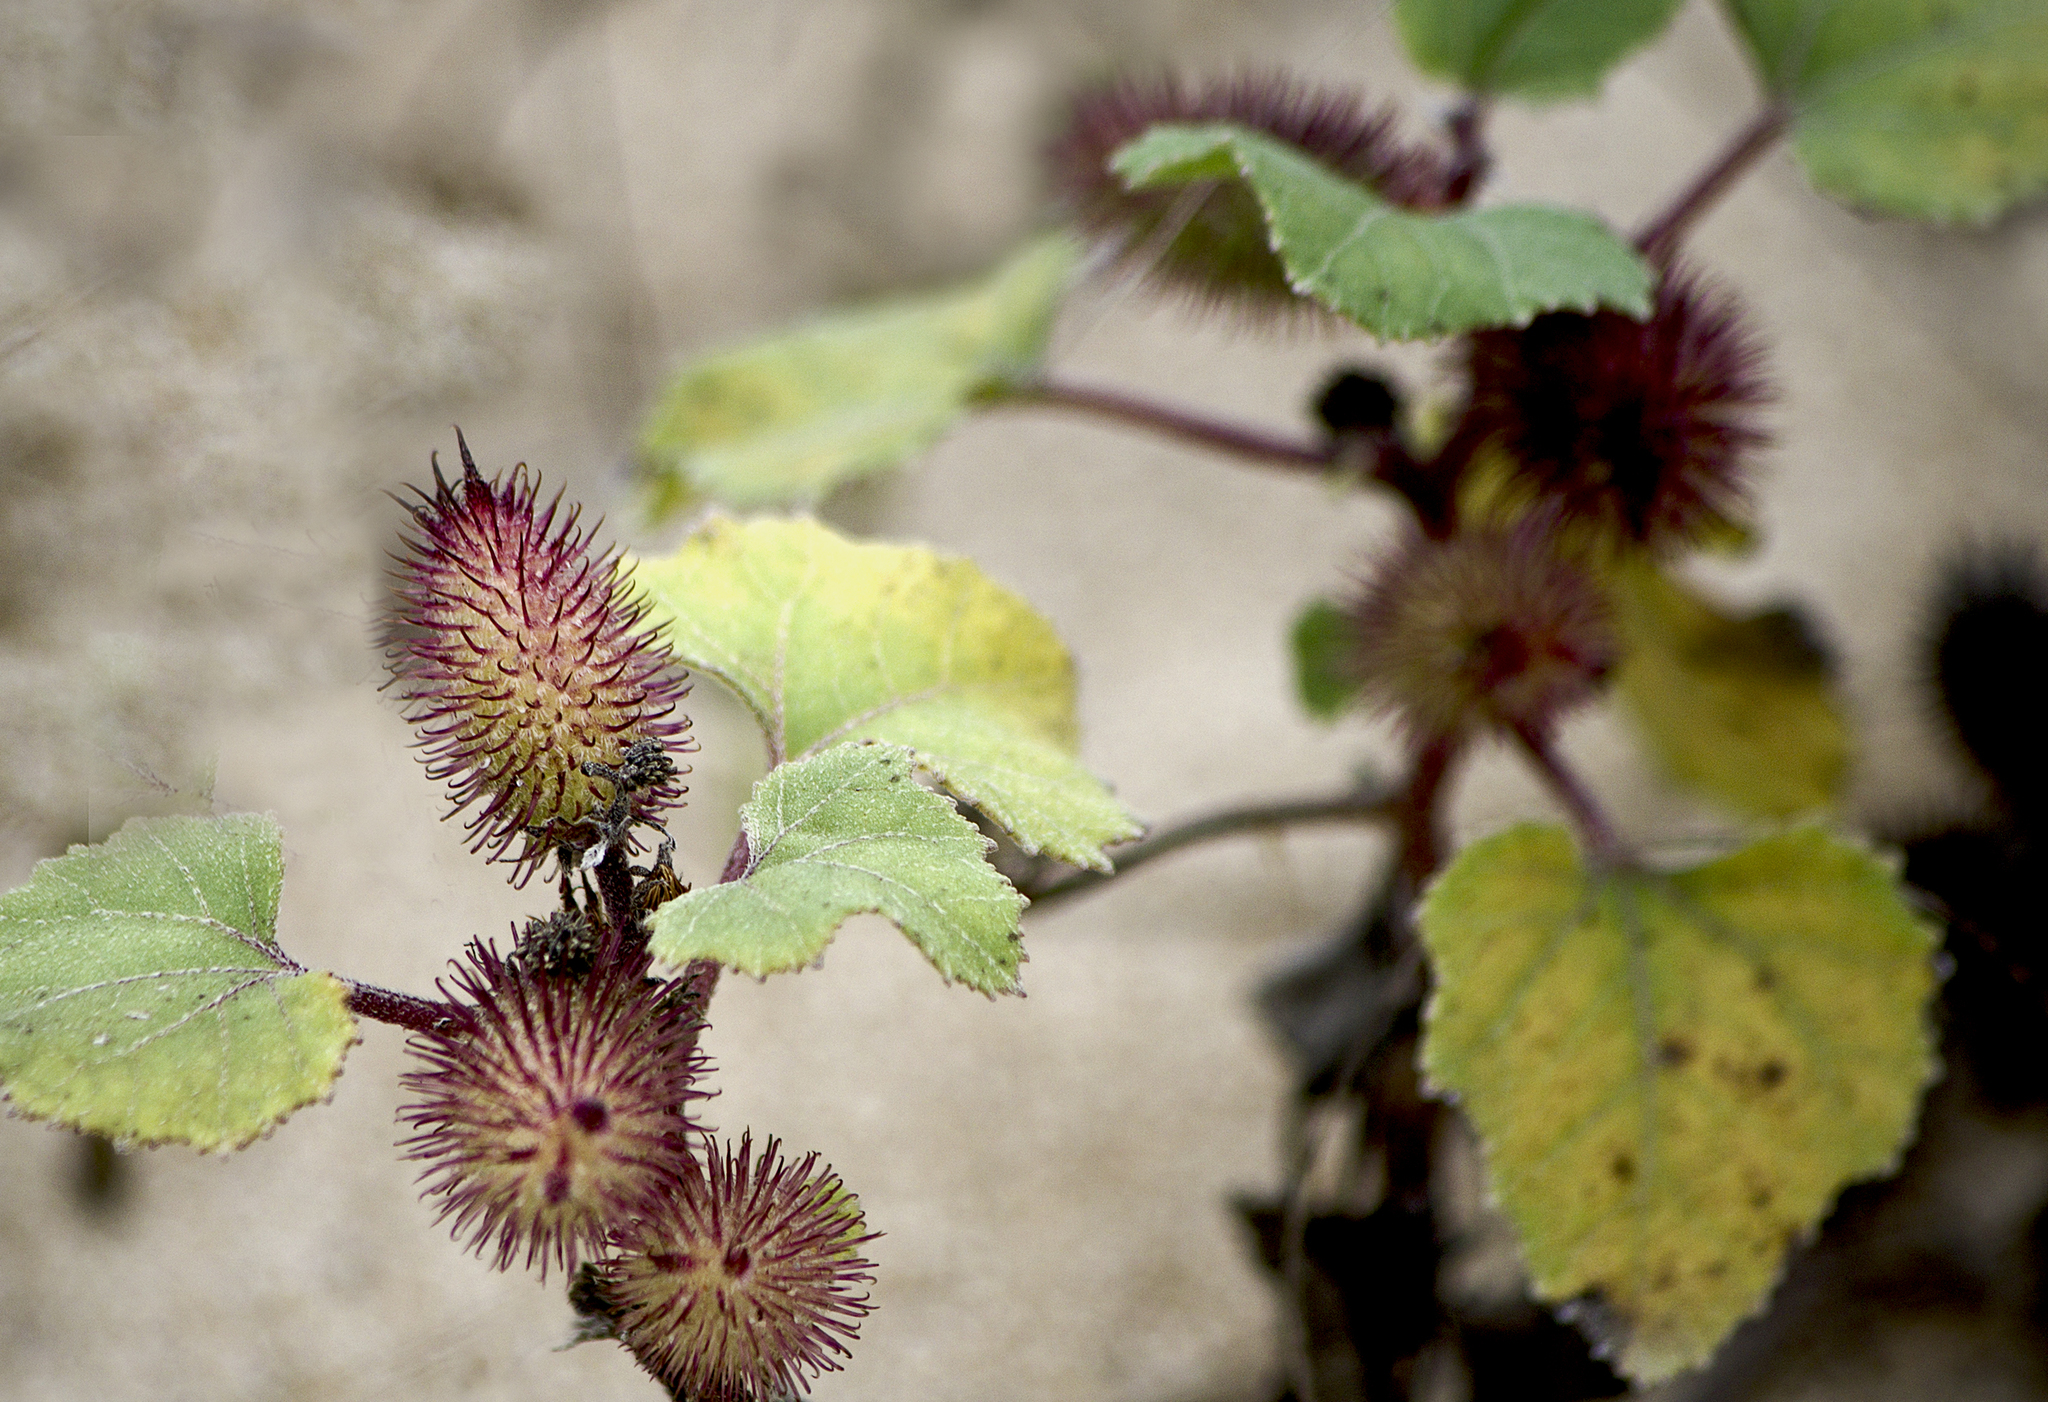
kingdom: Plantae
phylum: Tracheophyta
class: Magnoliopsida
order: Asterales
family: Asteraceae
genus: Xanthium
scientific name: Xanthium strumarium
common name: Rough cocklebur
